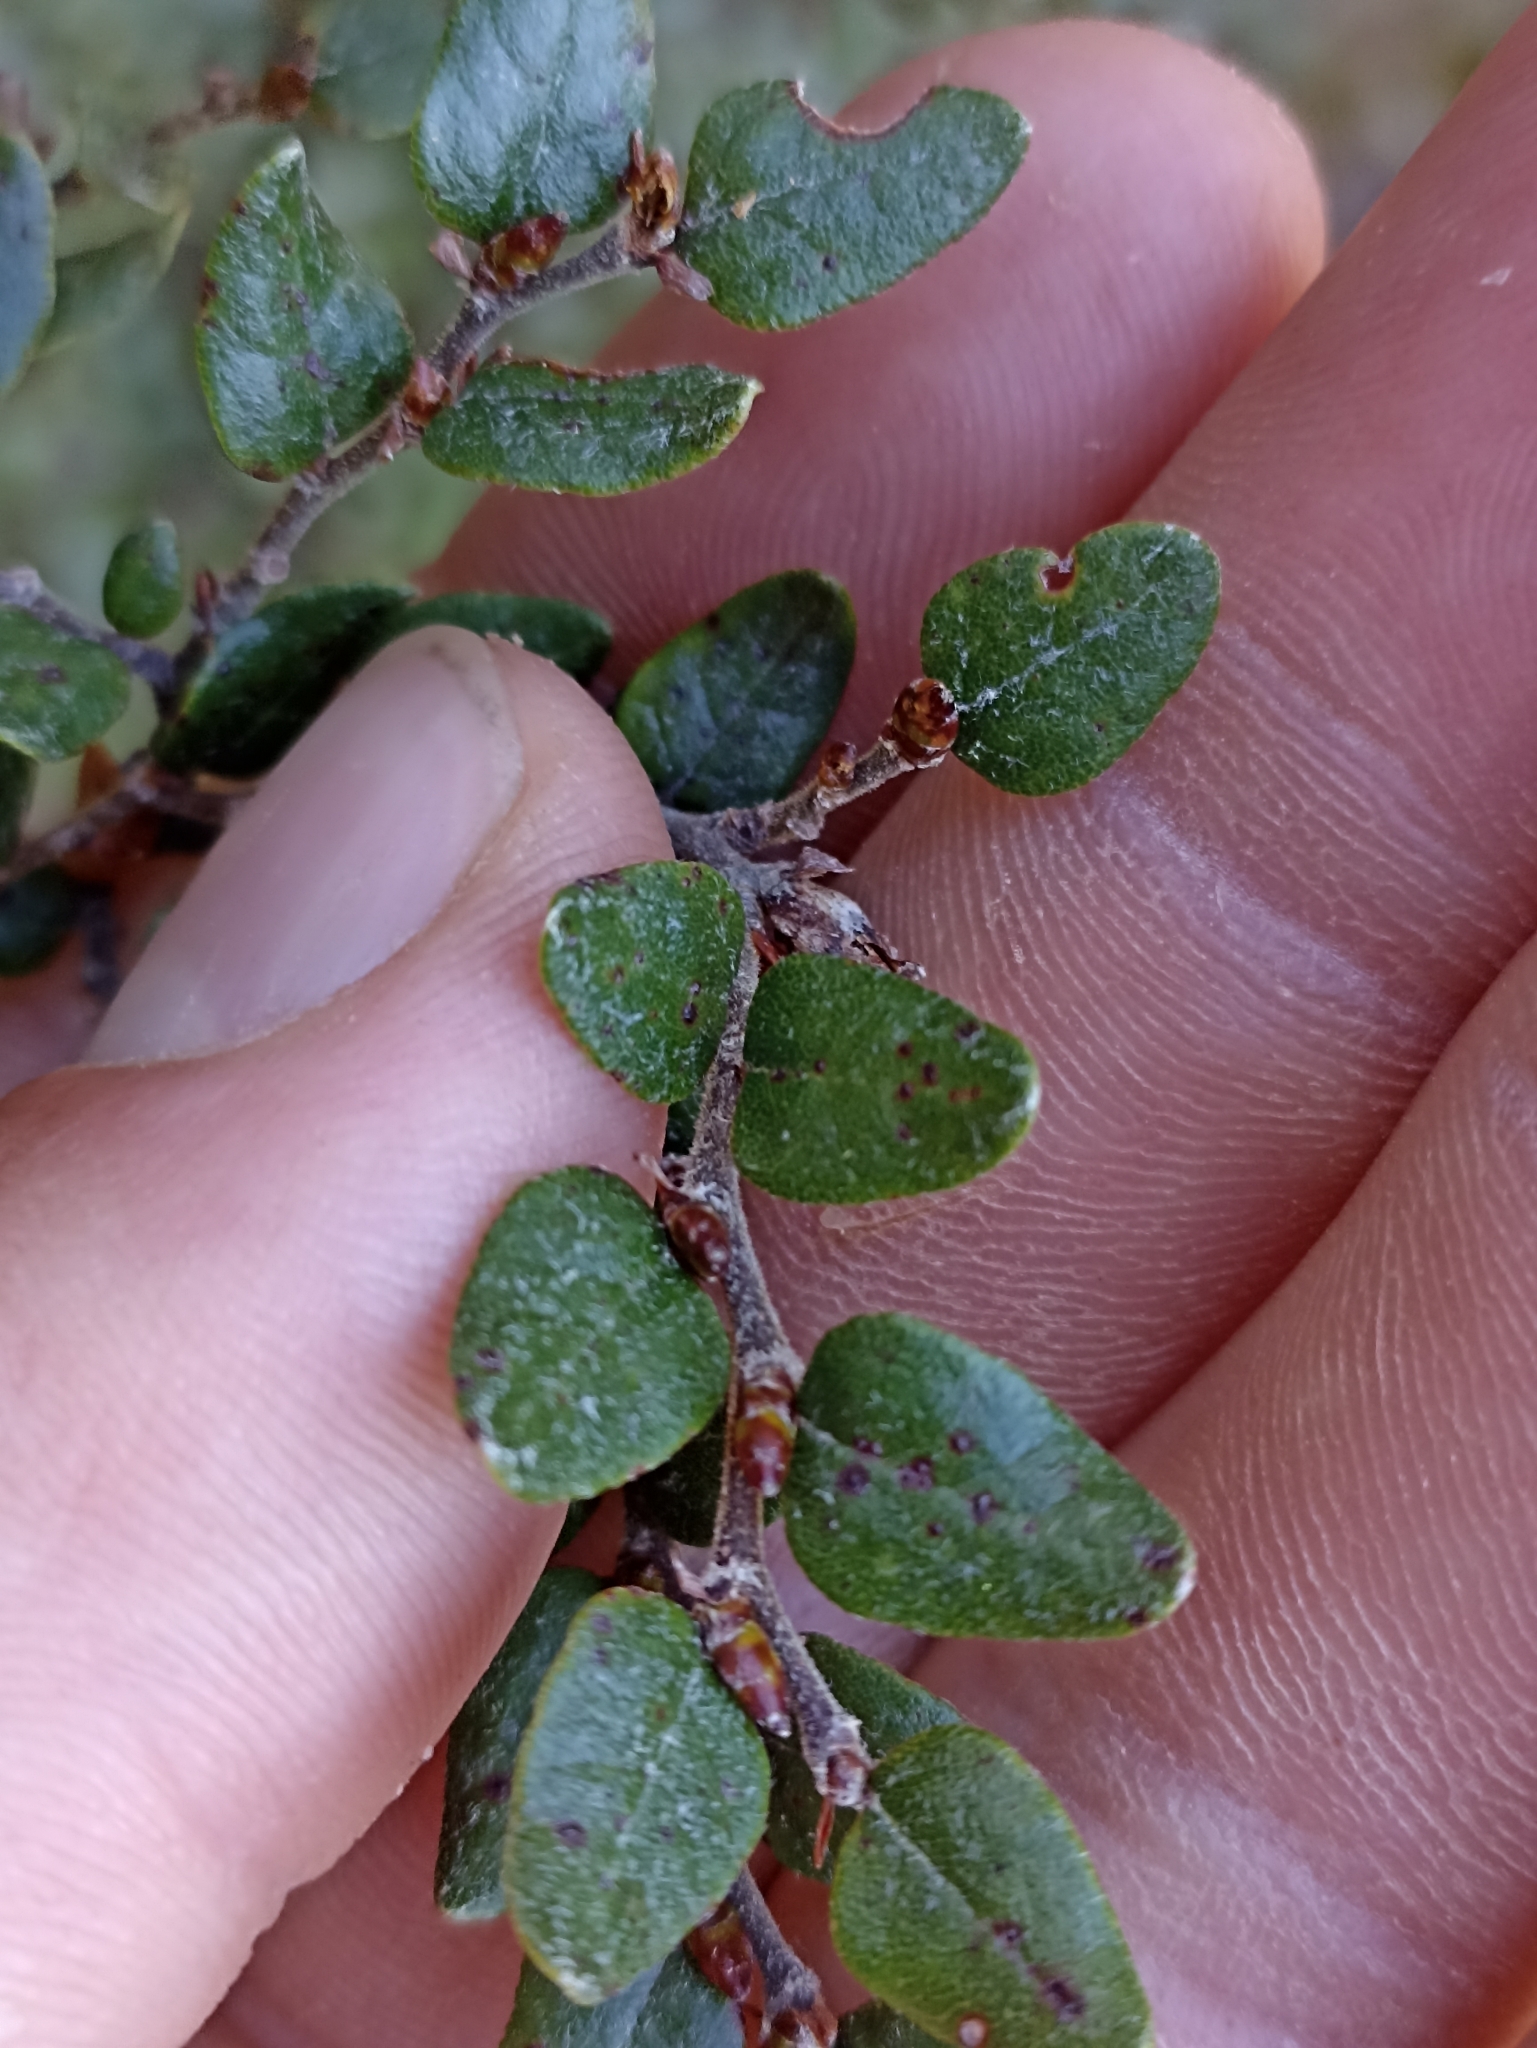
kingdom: Plantae
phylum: Tracheophyta
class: Magnoliopsida
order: Fagales
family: Nothofagaceae
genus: Nothofagus
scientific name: Nothofagus cliffortioides
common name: Mountain beech
